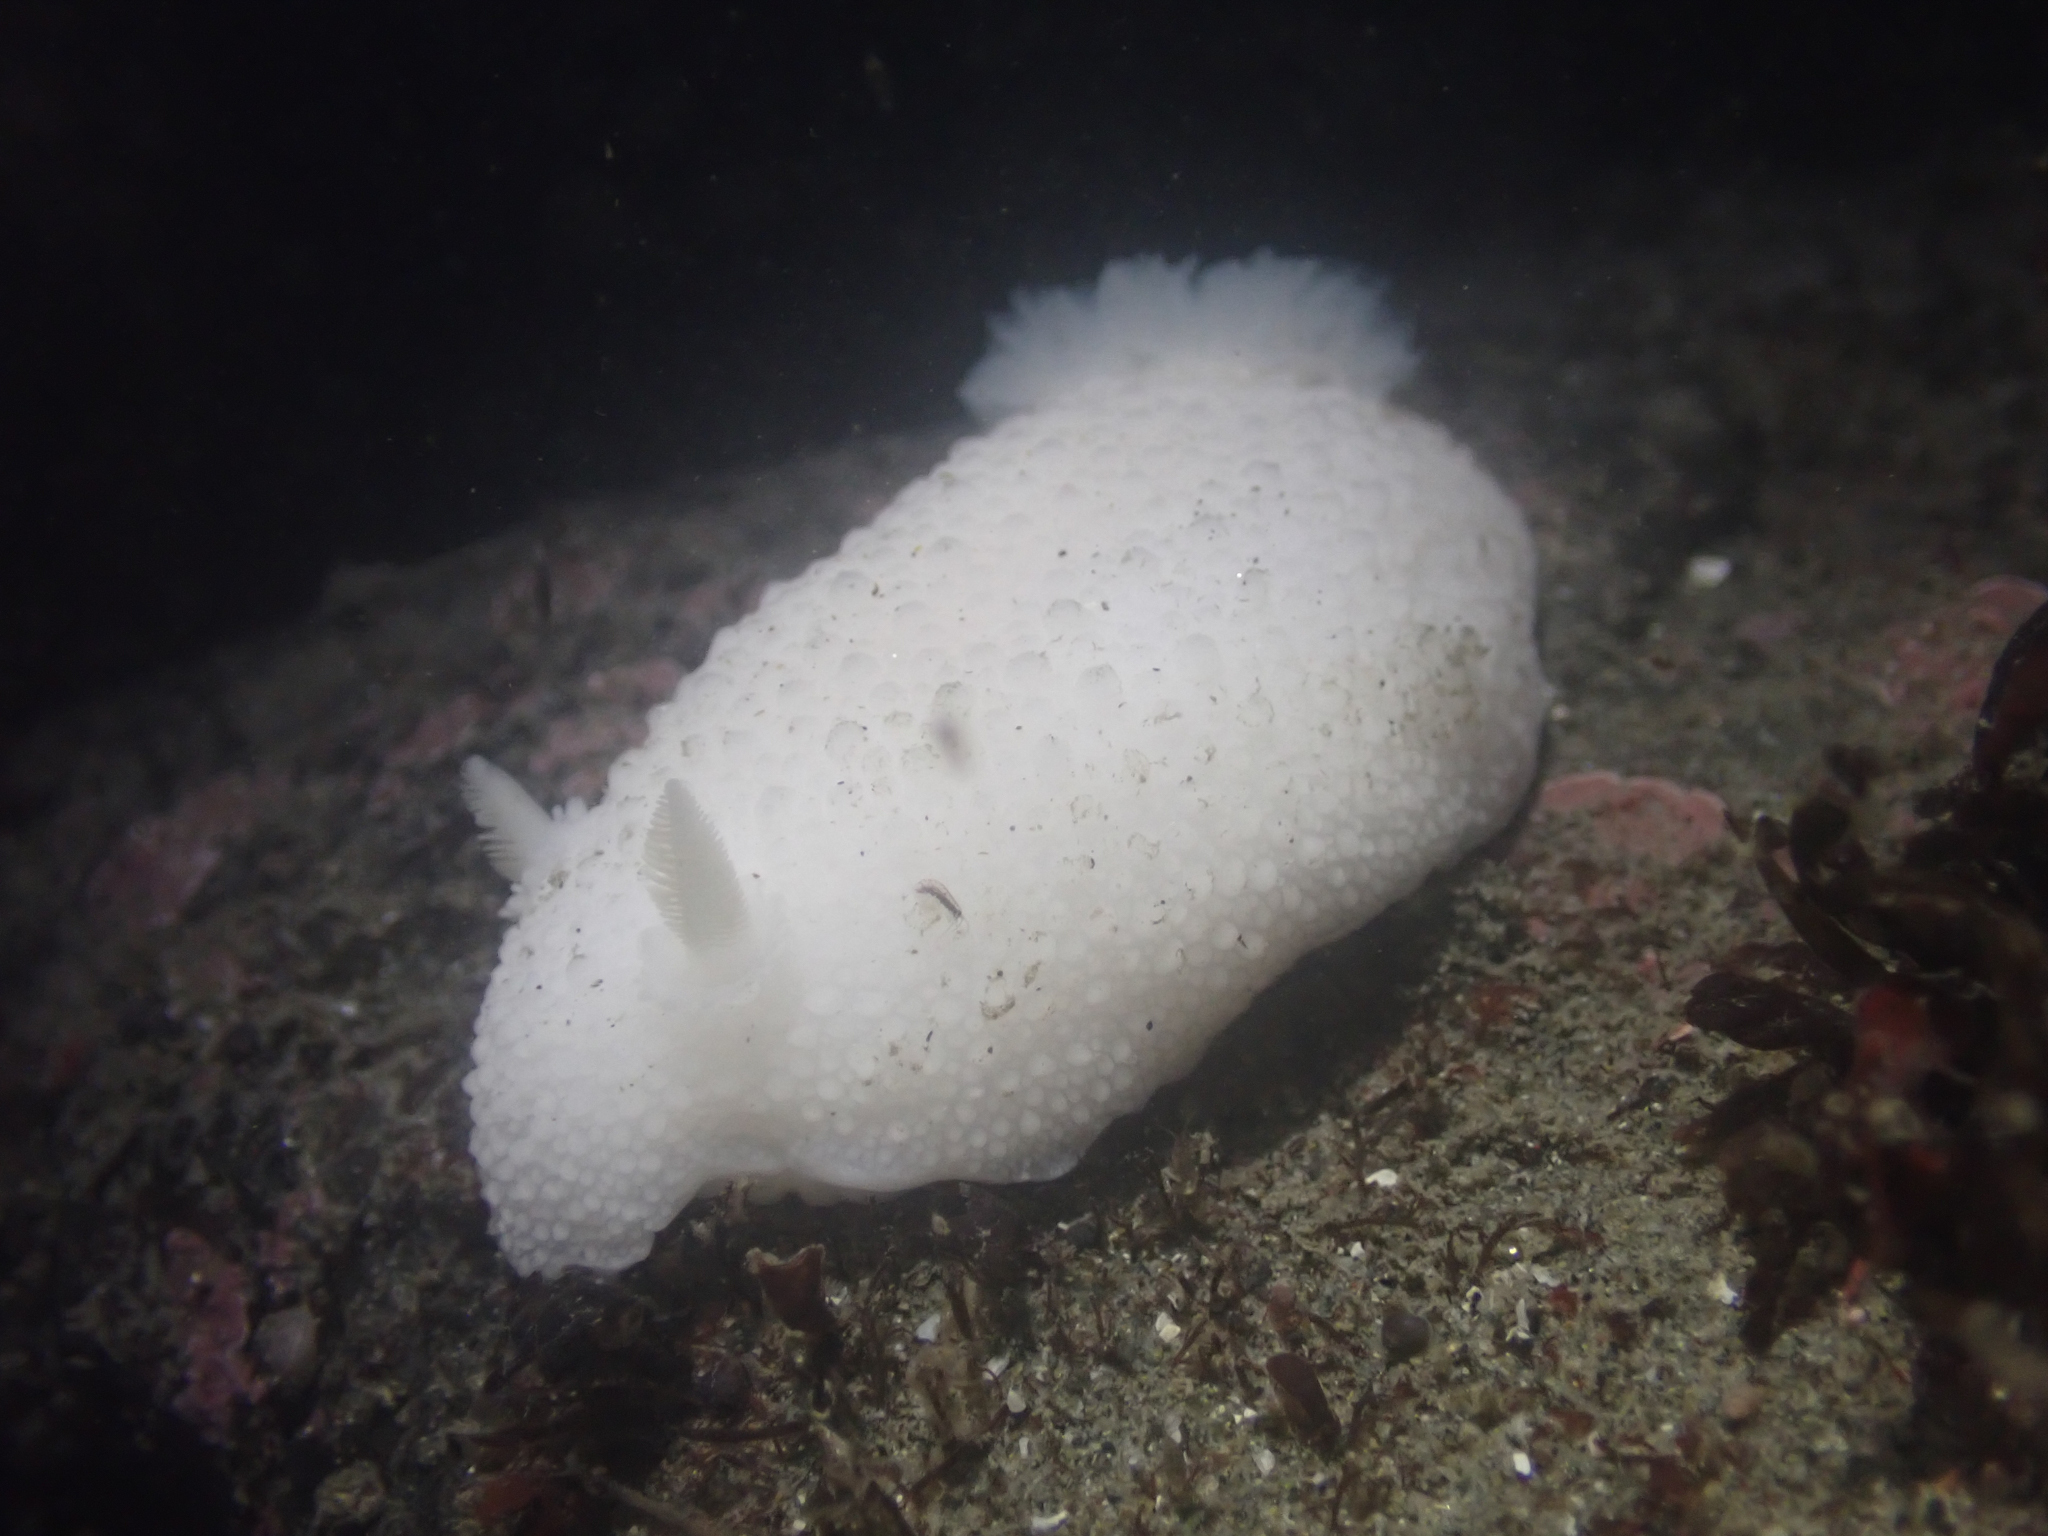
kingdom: Animalia
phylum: Mollusca
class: Gastropoda
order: Nudibranchia
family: Dorididae
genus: Doris
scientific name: Doris odhneri
